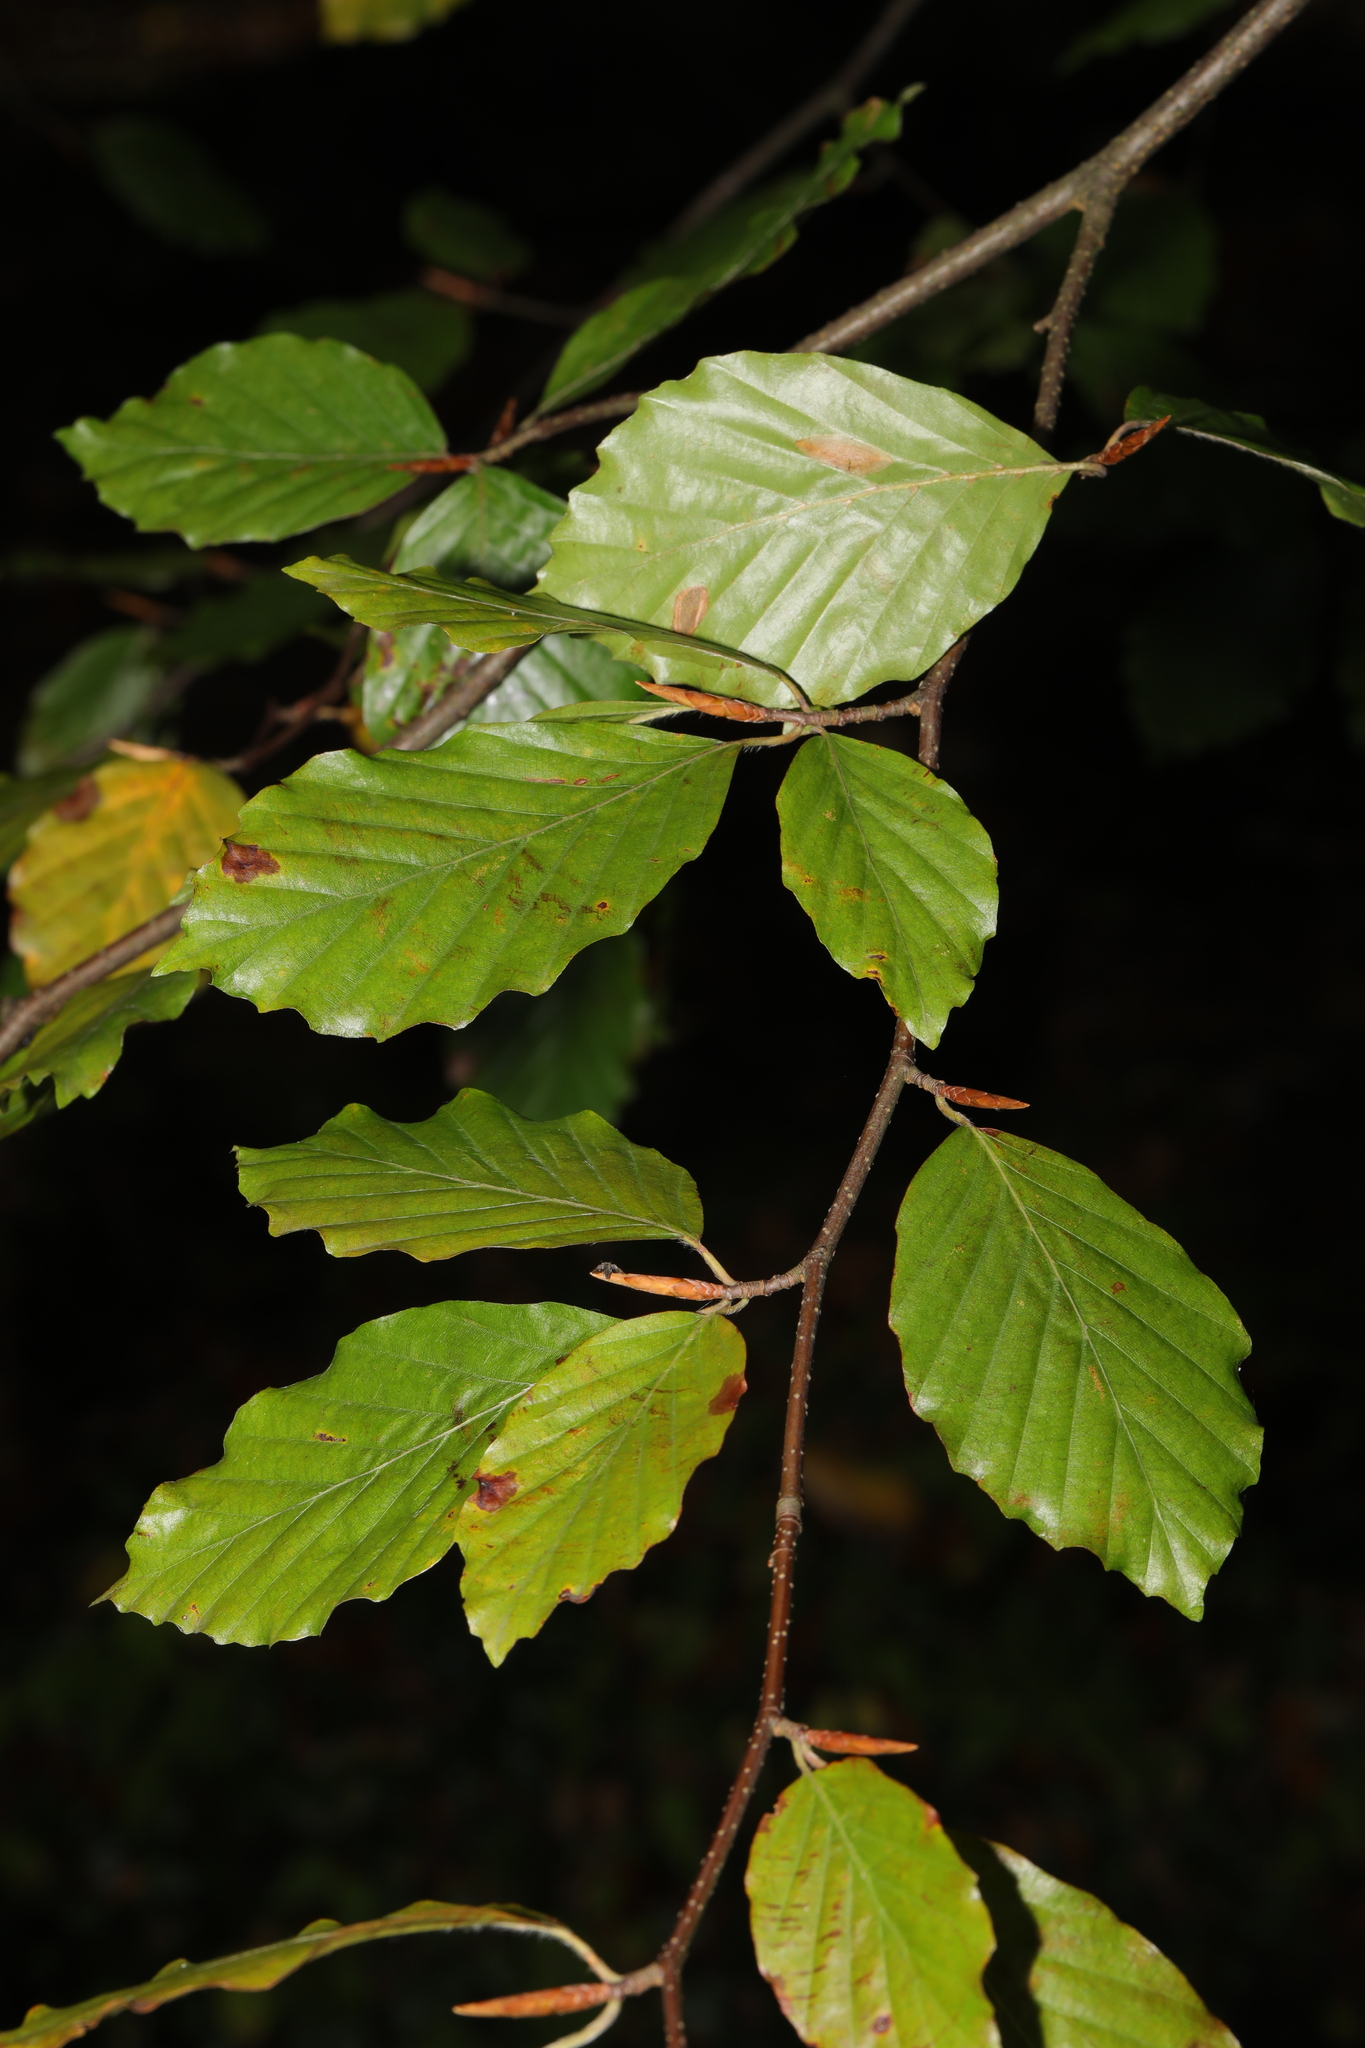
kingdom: Plantae
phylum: Tracheophyta
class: Magnoliopsida
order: Fagales
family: Fagaceae
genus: Fagus
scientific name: Fagus sylvatica
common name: Beech
